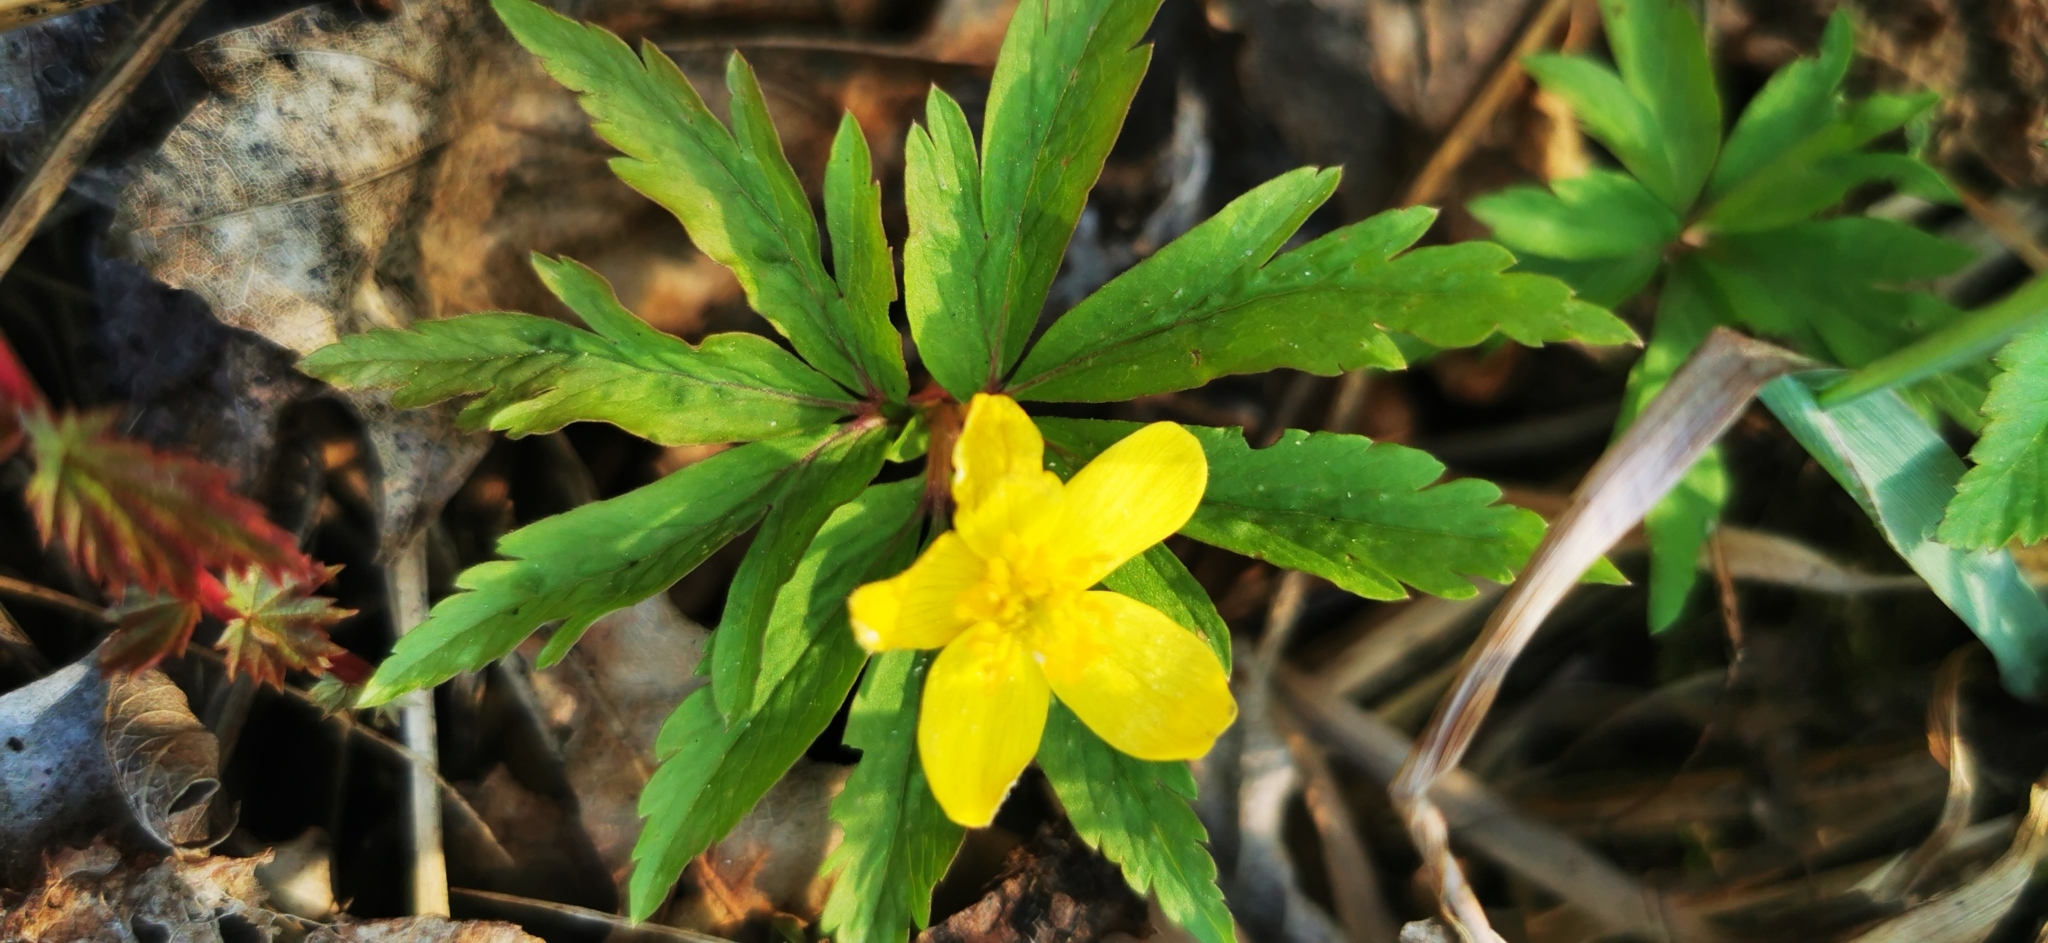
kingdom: Plantae
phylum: Tracheophyta
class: Magnoliopsida
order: Ranunculales
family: Ranunculaceae
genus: Anemone
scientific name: Anemone ranunculoides
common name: Yellow anemone
